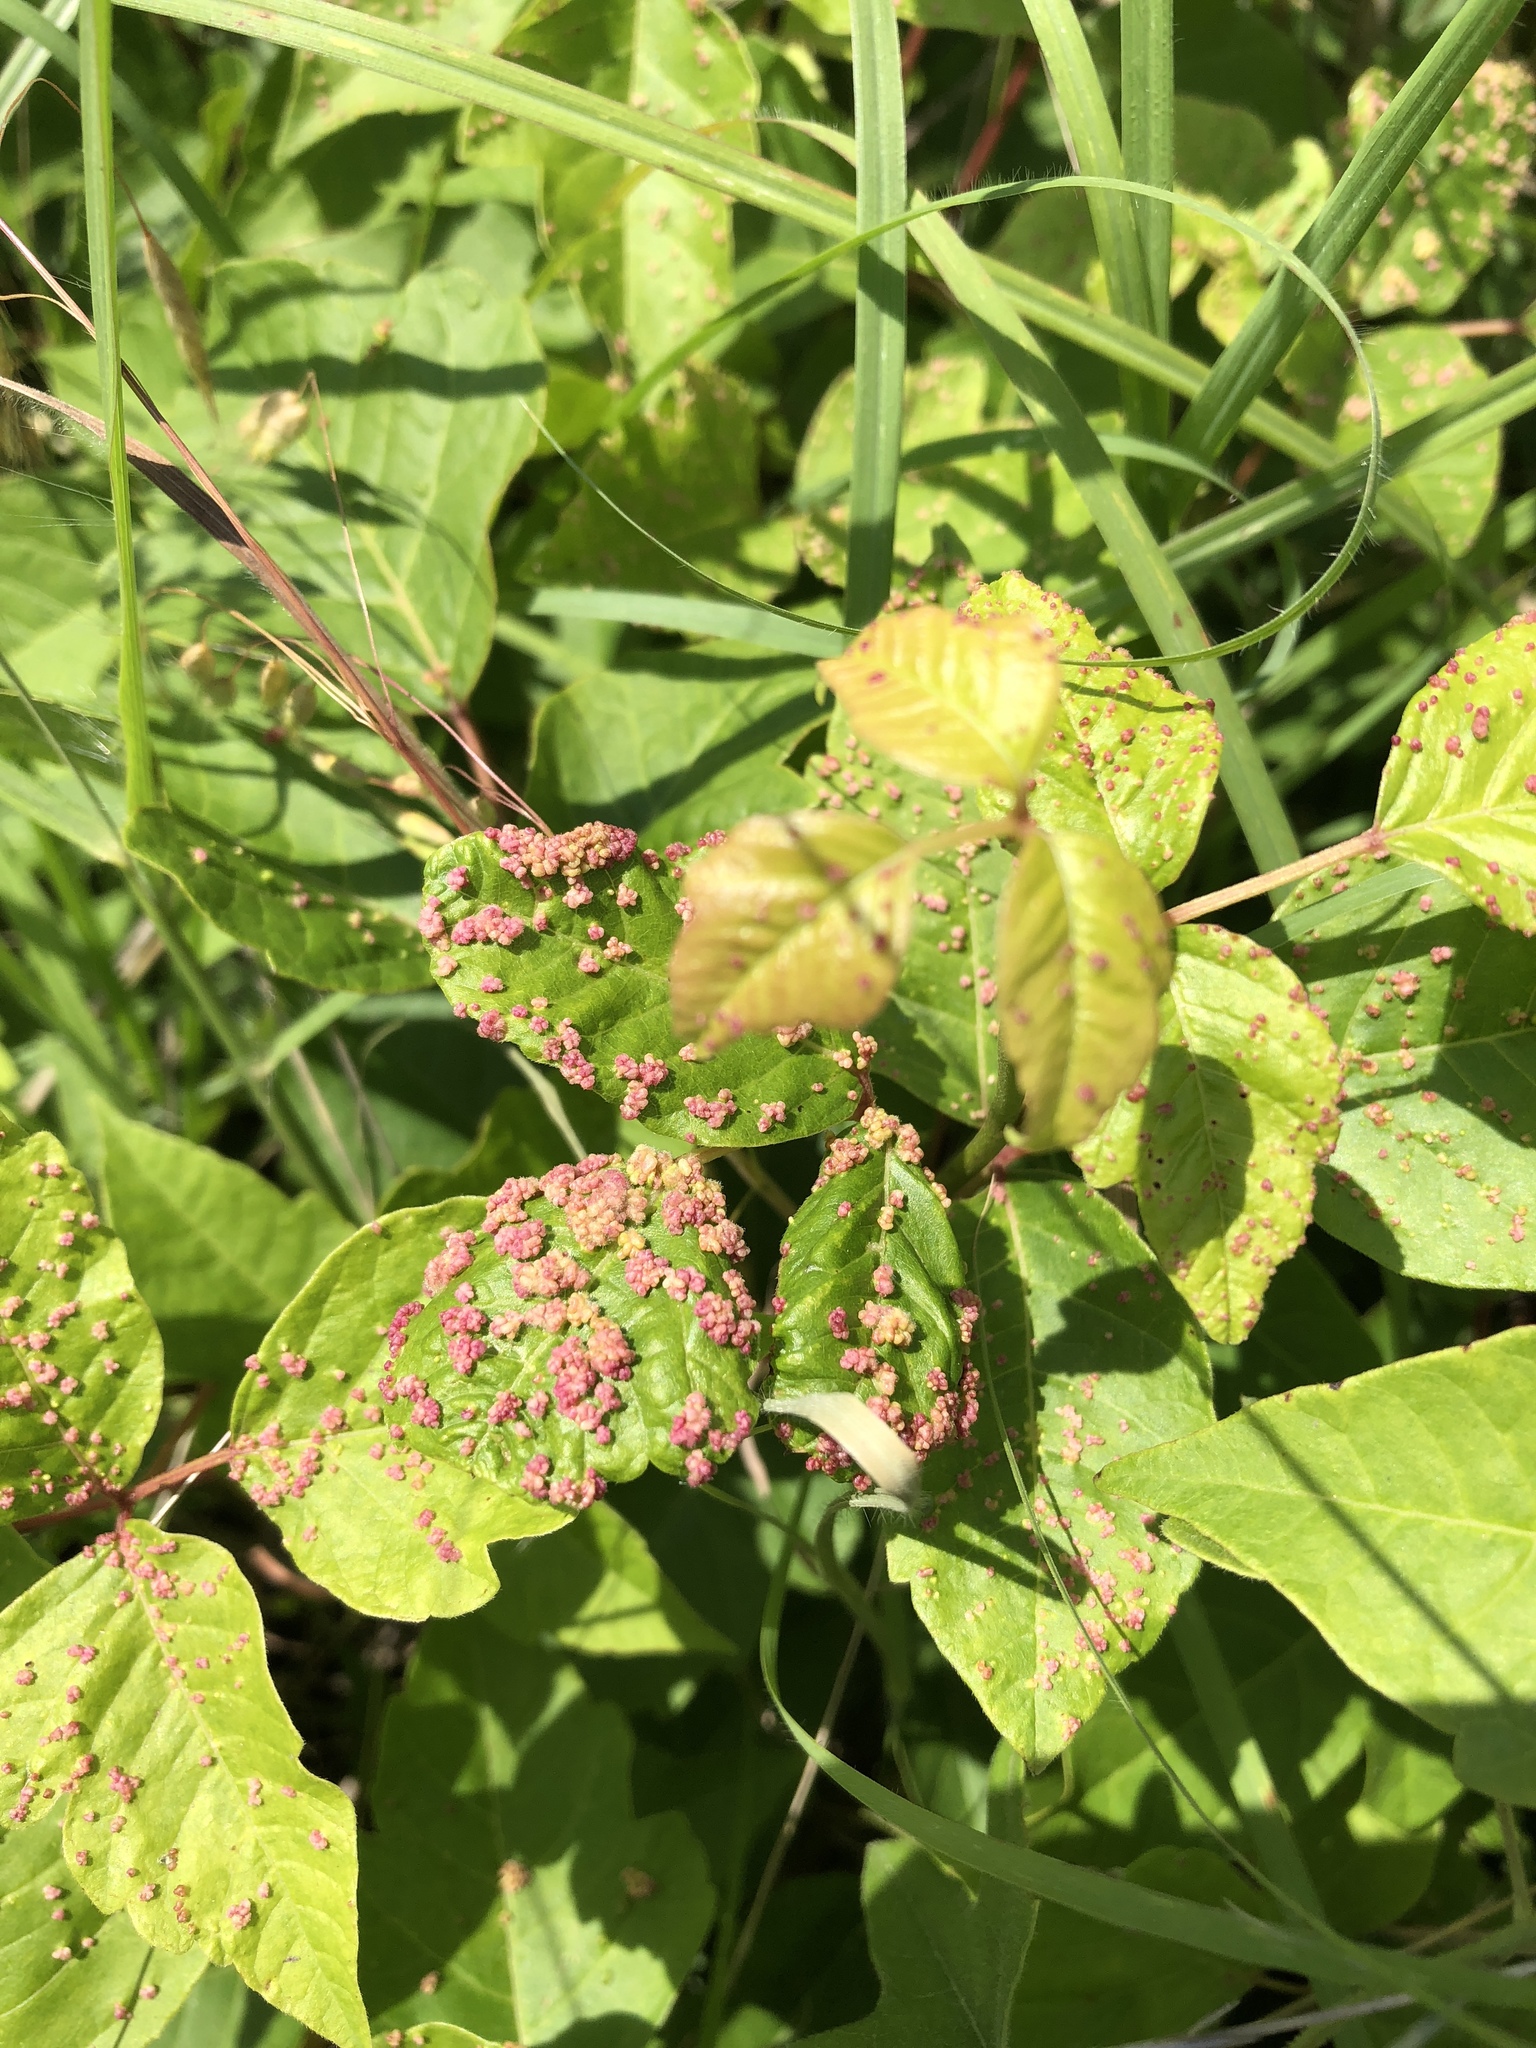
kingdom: Animalia
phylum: Arthropoda
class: Arachnida
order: Trombidiformes
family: Eriophyidae
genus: Aculops
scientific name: Aculops
